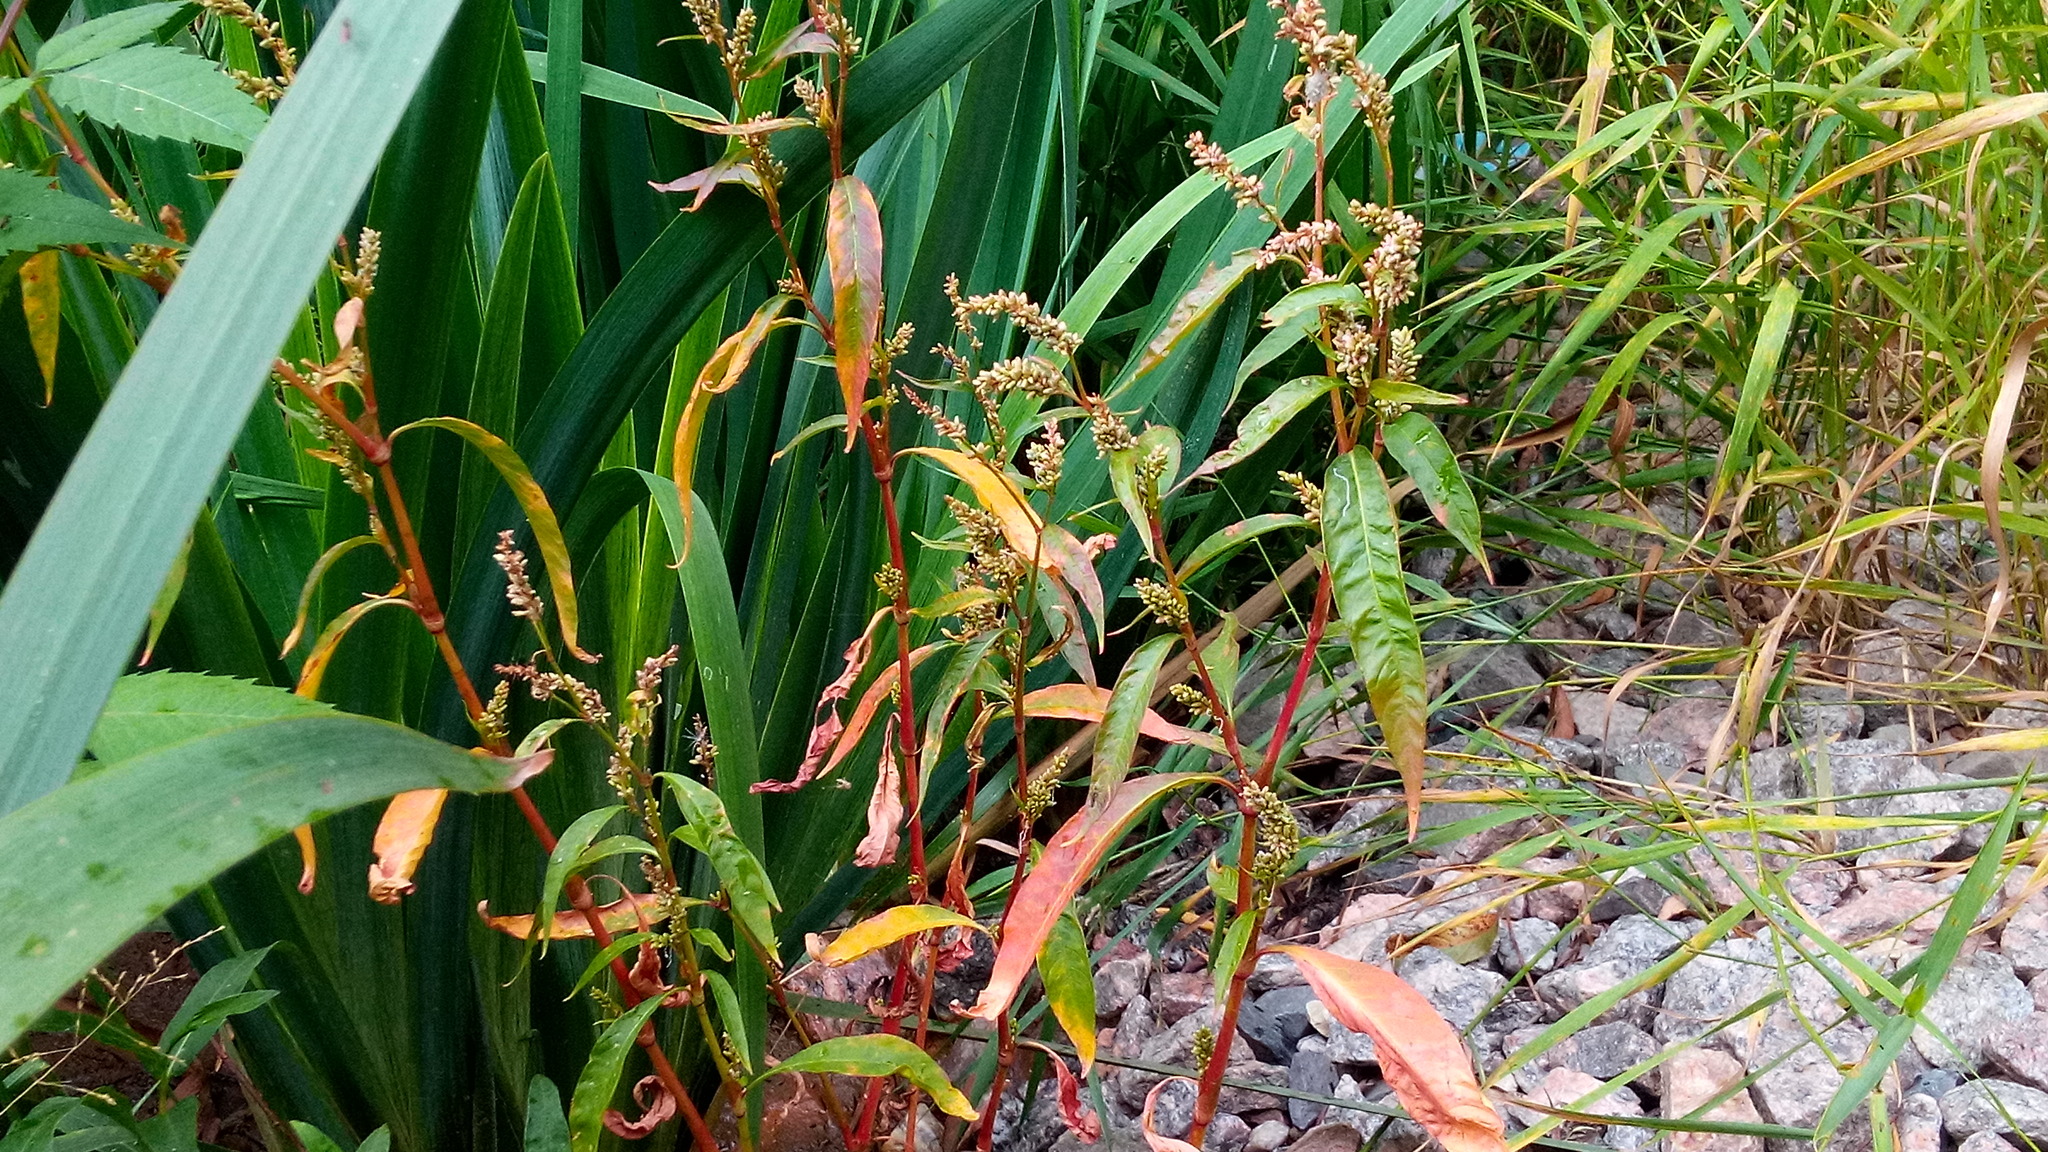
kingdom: Plantae
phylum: Tracheophyta
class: Magnoliopsida
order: Caryophyllales
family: Polygonaceae
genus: Persicaria
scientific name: Persicaria lapathifolia
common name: Curlytop knotweed
